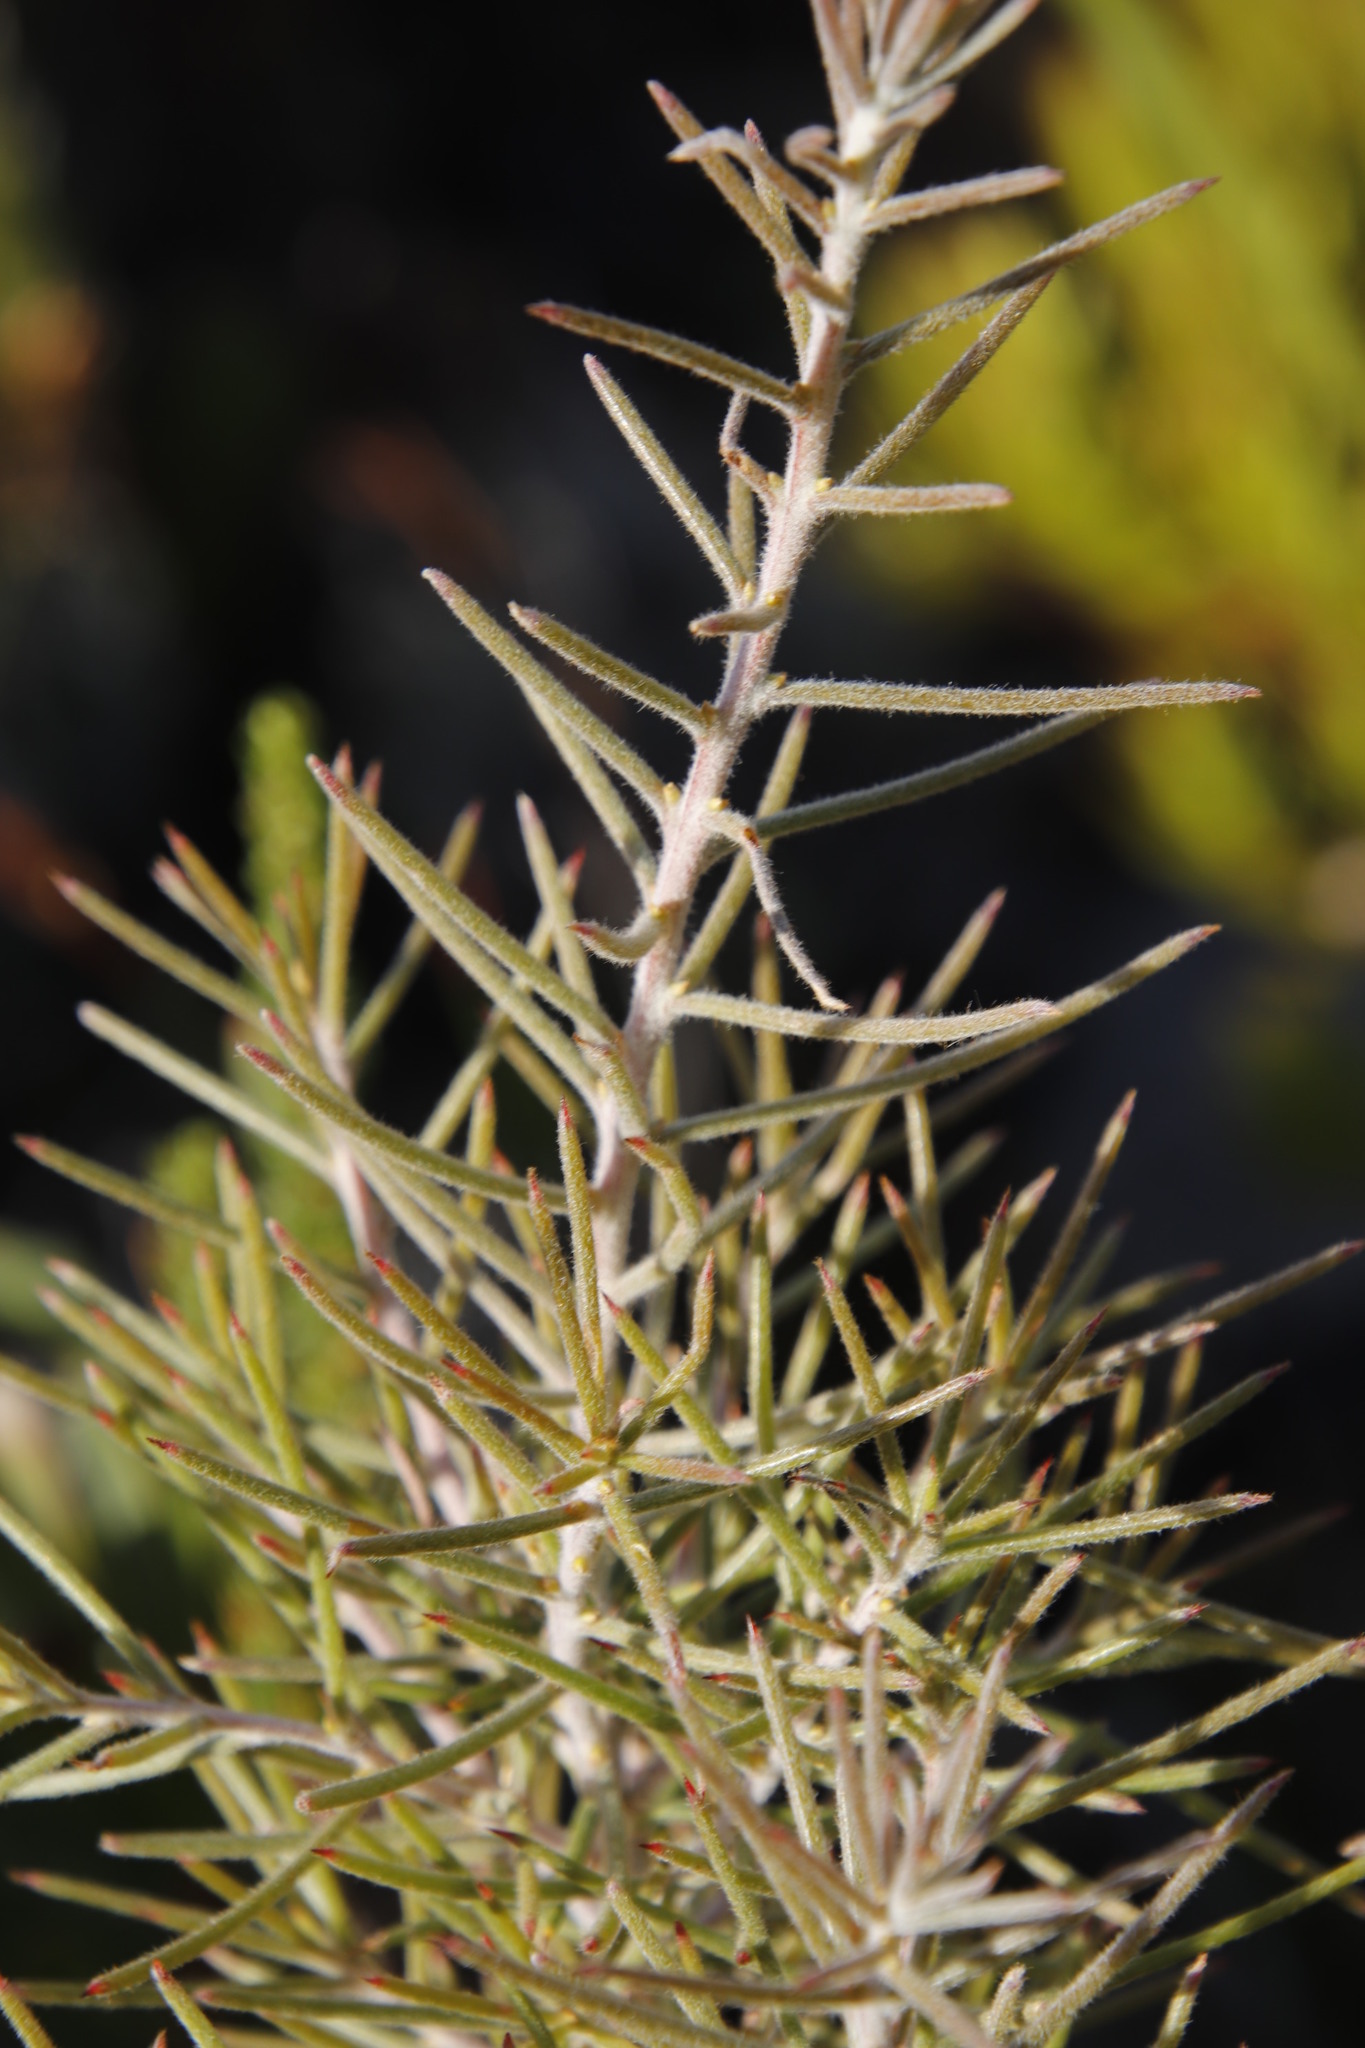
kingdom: Plantae
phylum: Tracheophyta
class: Magnoliopsida
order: Proteales
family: Proteaceae
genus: Hakea
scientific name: Hakea gibbosa
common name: Rock hakea
